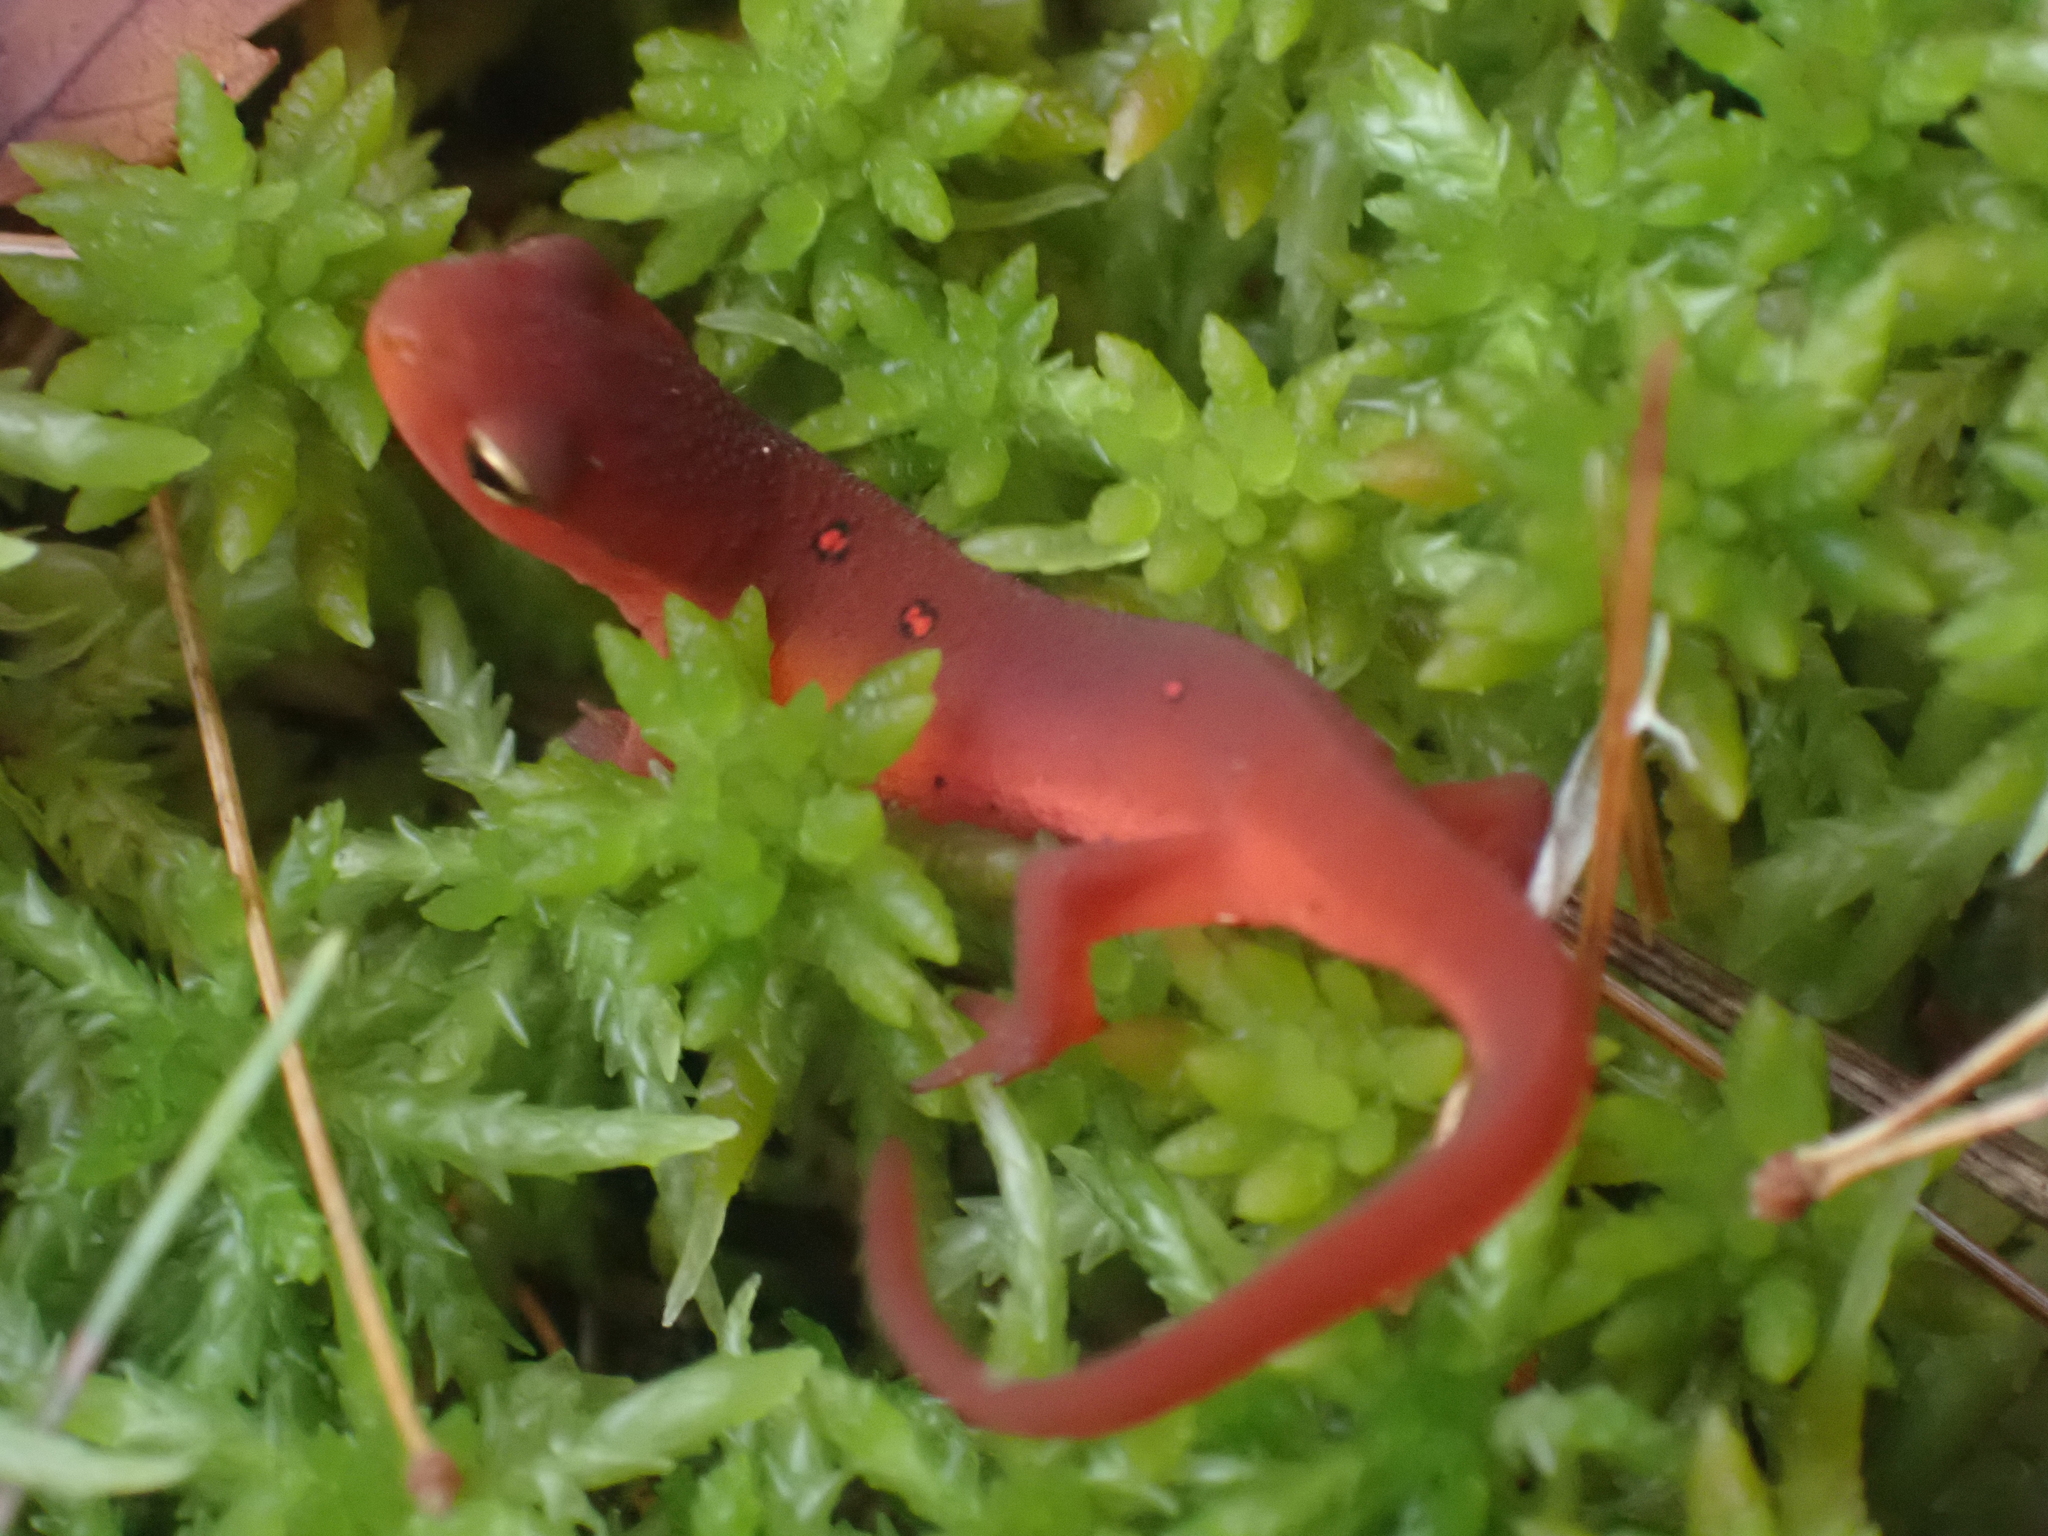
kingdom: Animalia
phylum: Chordata
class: Amphibia
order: Caudata
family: Salamandridae
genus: Notophthalmus
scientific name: Notophthalmus viridescens
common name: Eastern newt
